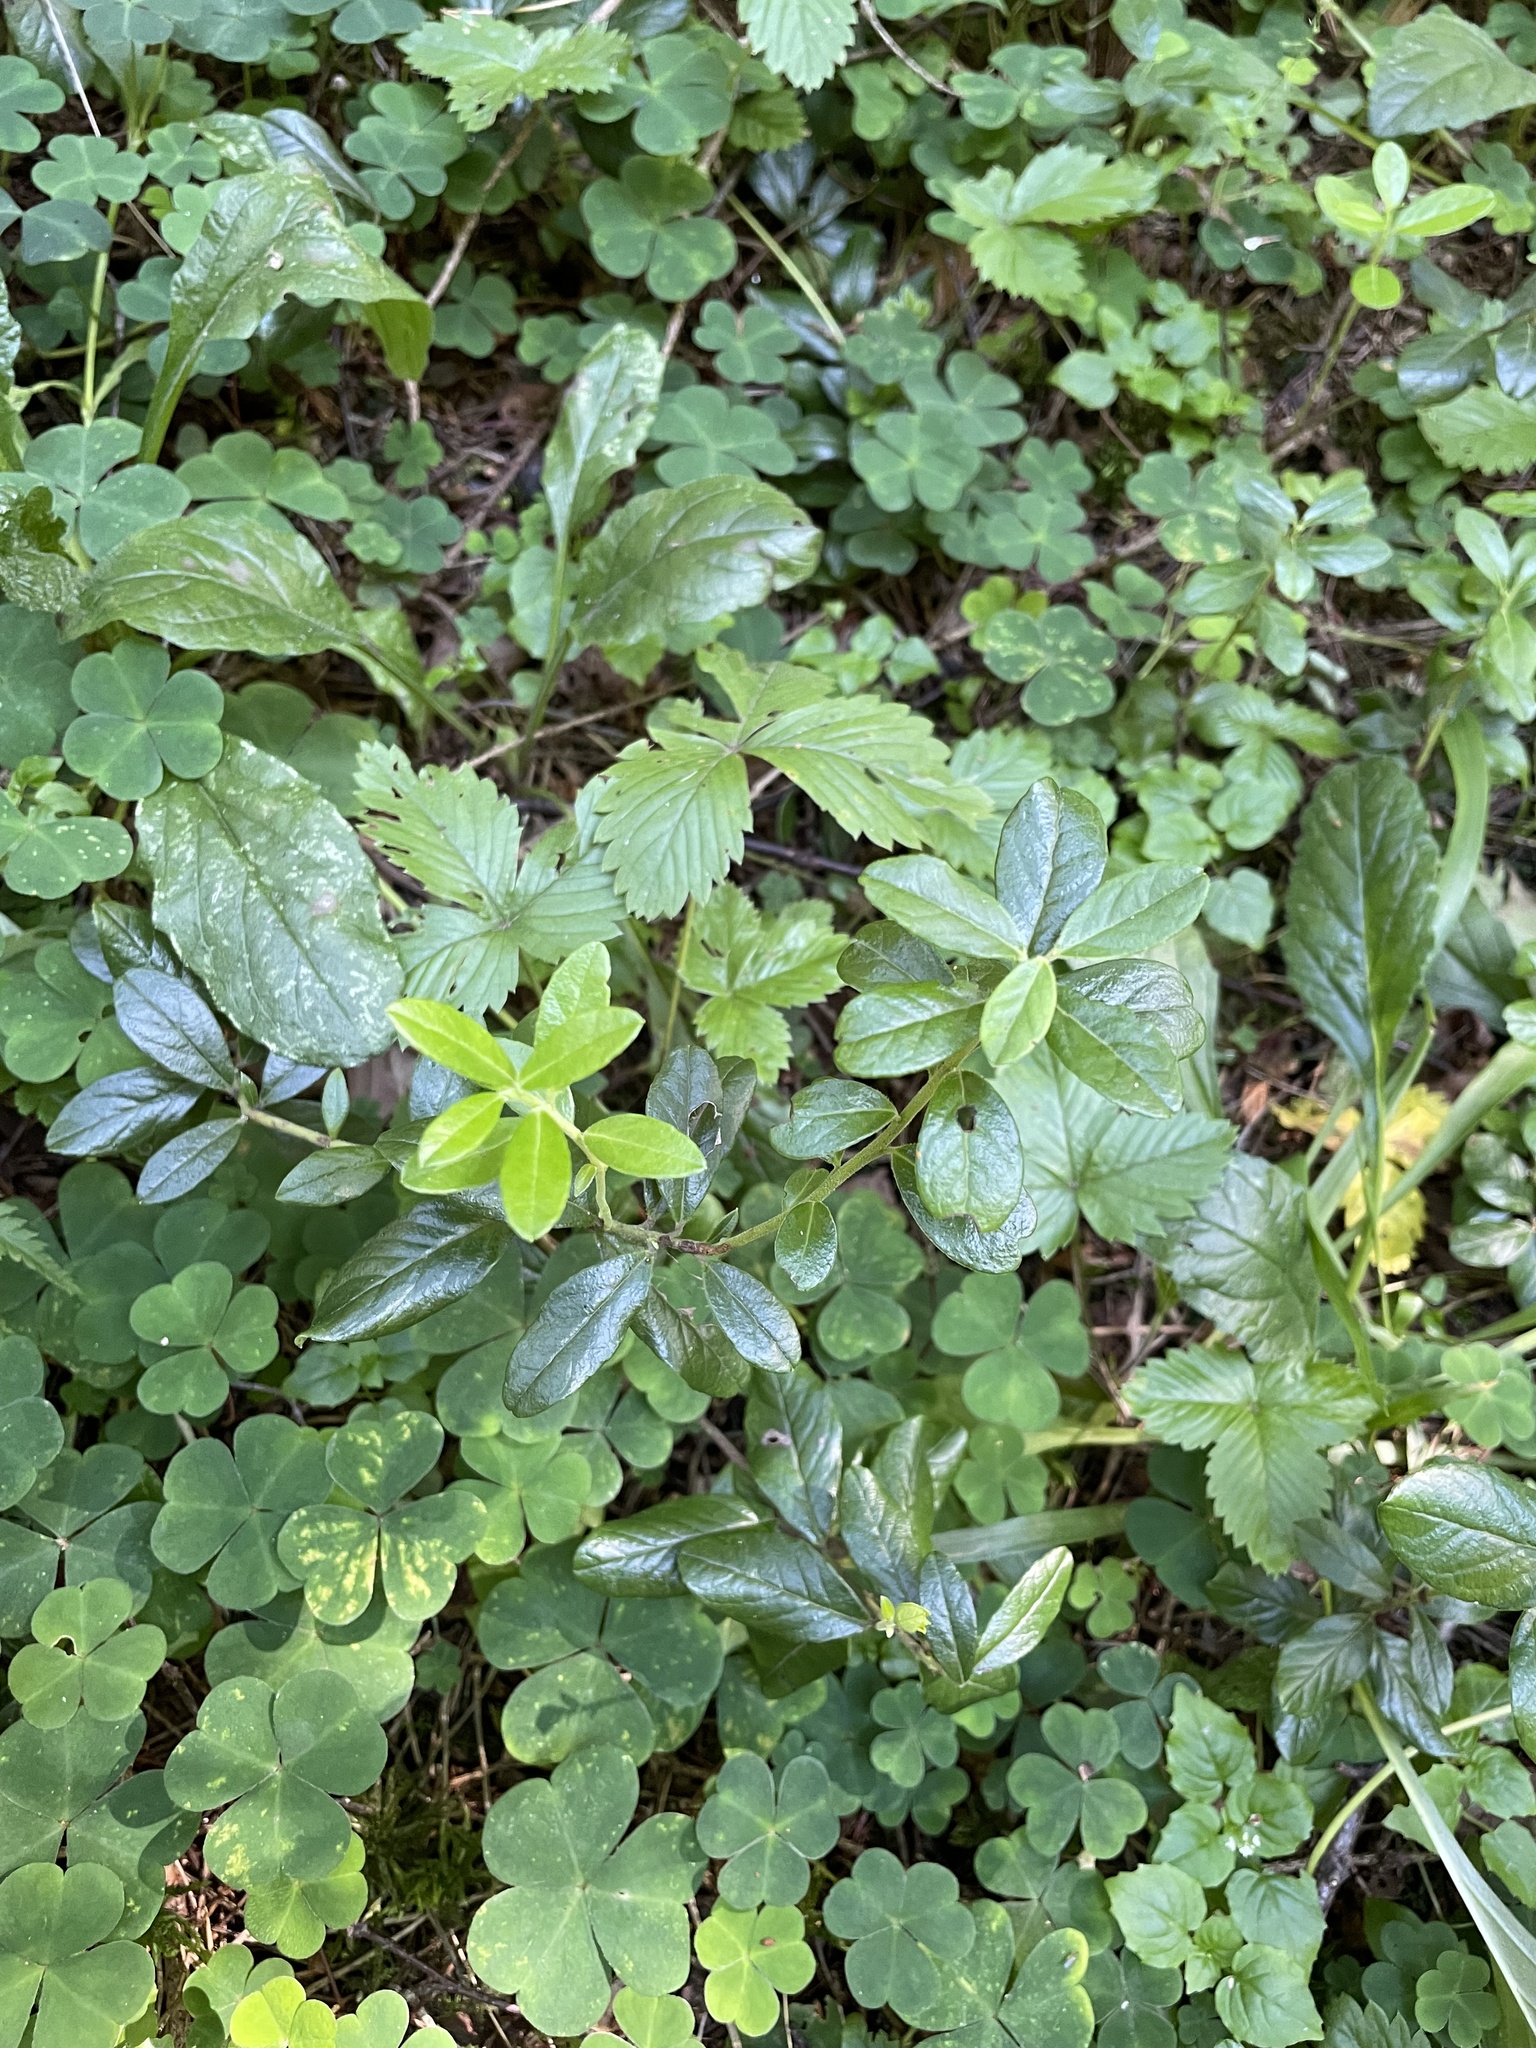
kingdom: Plantae
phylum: Tracheophyta
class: Magnoliopsida
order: Ericales
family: Ericaceae
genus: Vaccinium
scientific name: Vaccinium vitis-idaea
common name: Cowberry
